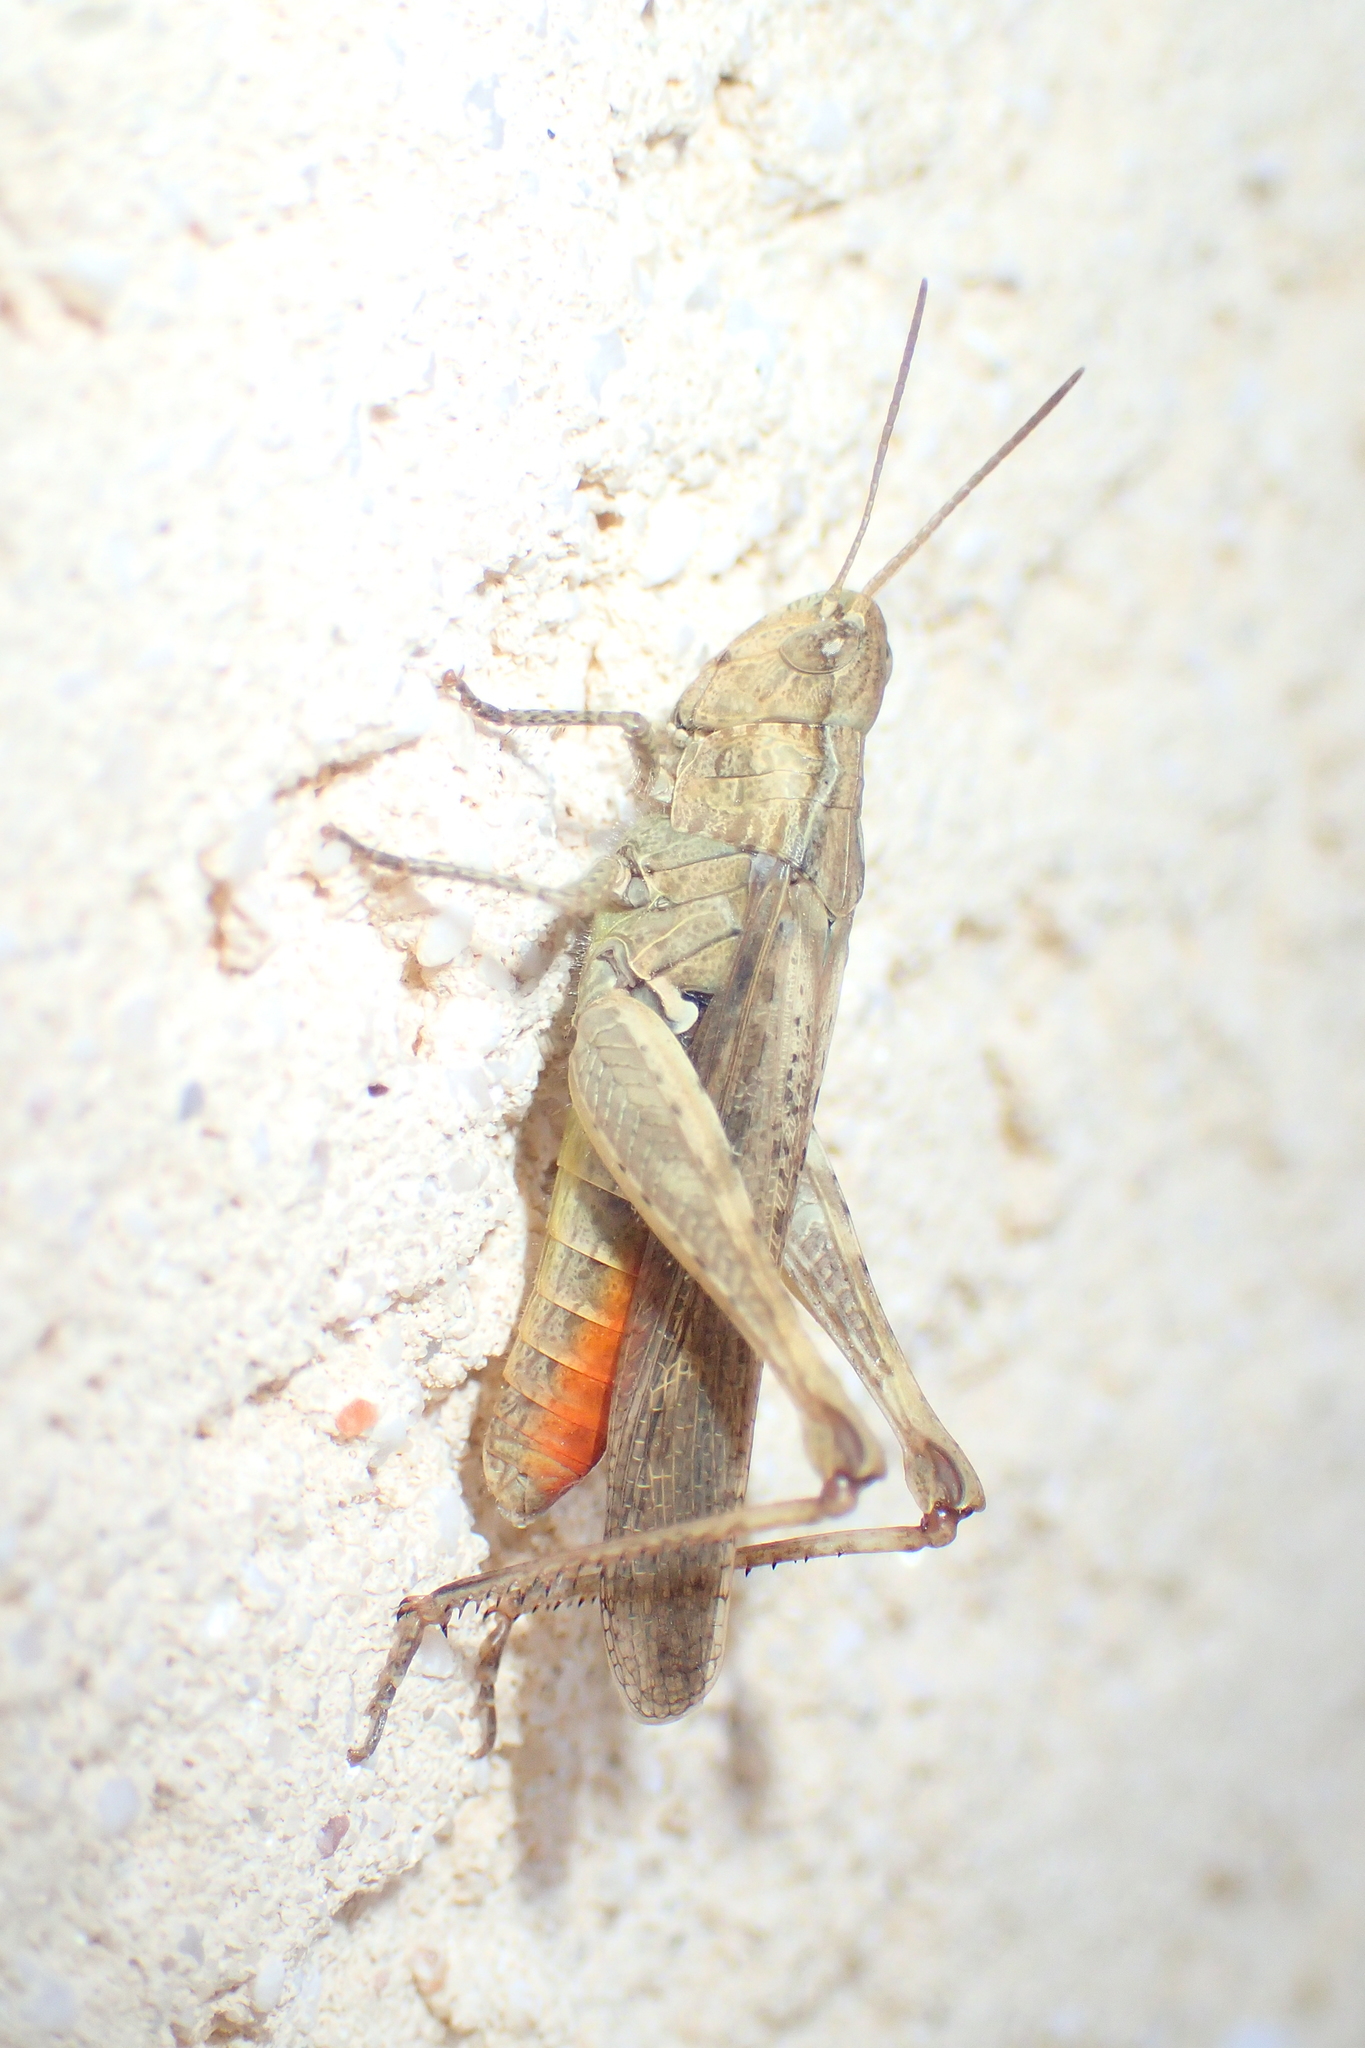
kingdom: Animalia
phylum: Arthropoda
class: Insecta
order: Orthoptera
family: Acrididae
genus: Chorthippus
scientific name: Chorthippus brunneus
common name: Field grasshopper
